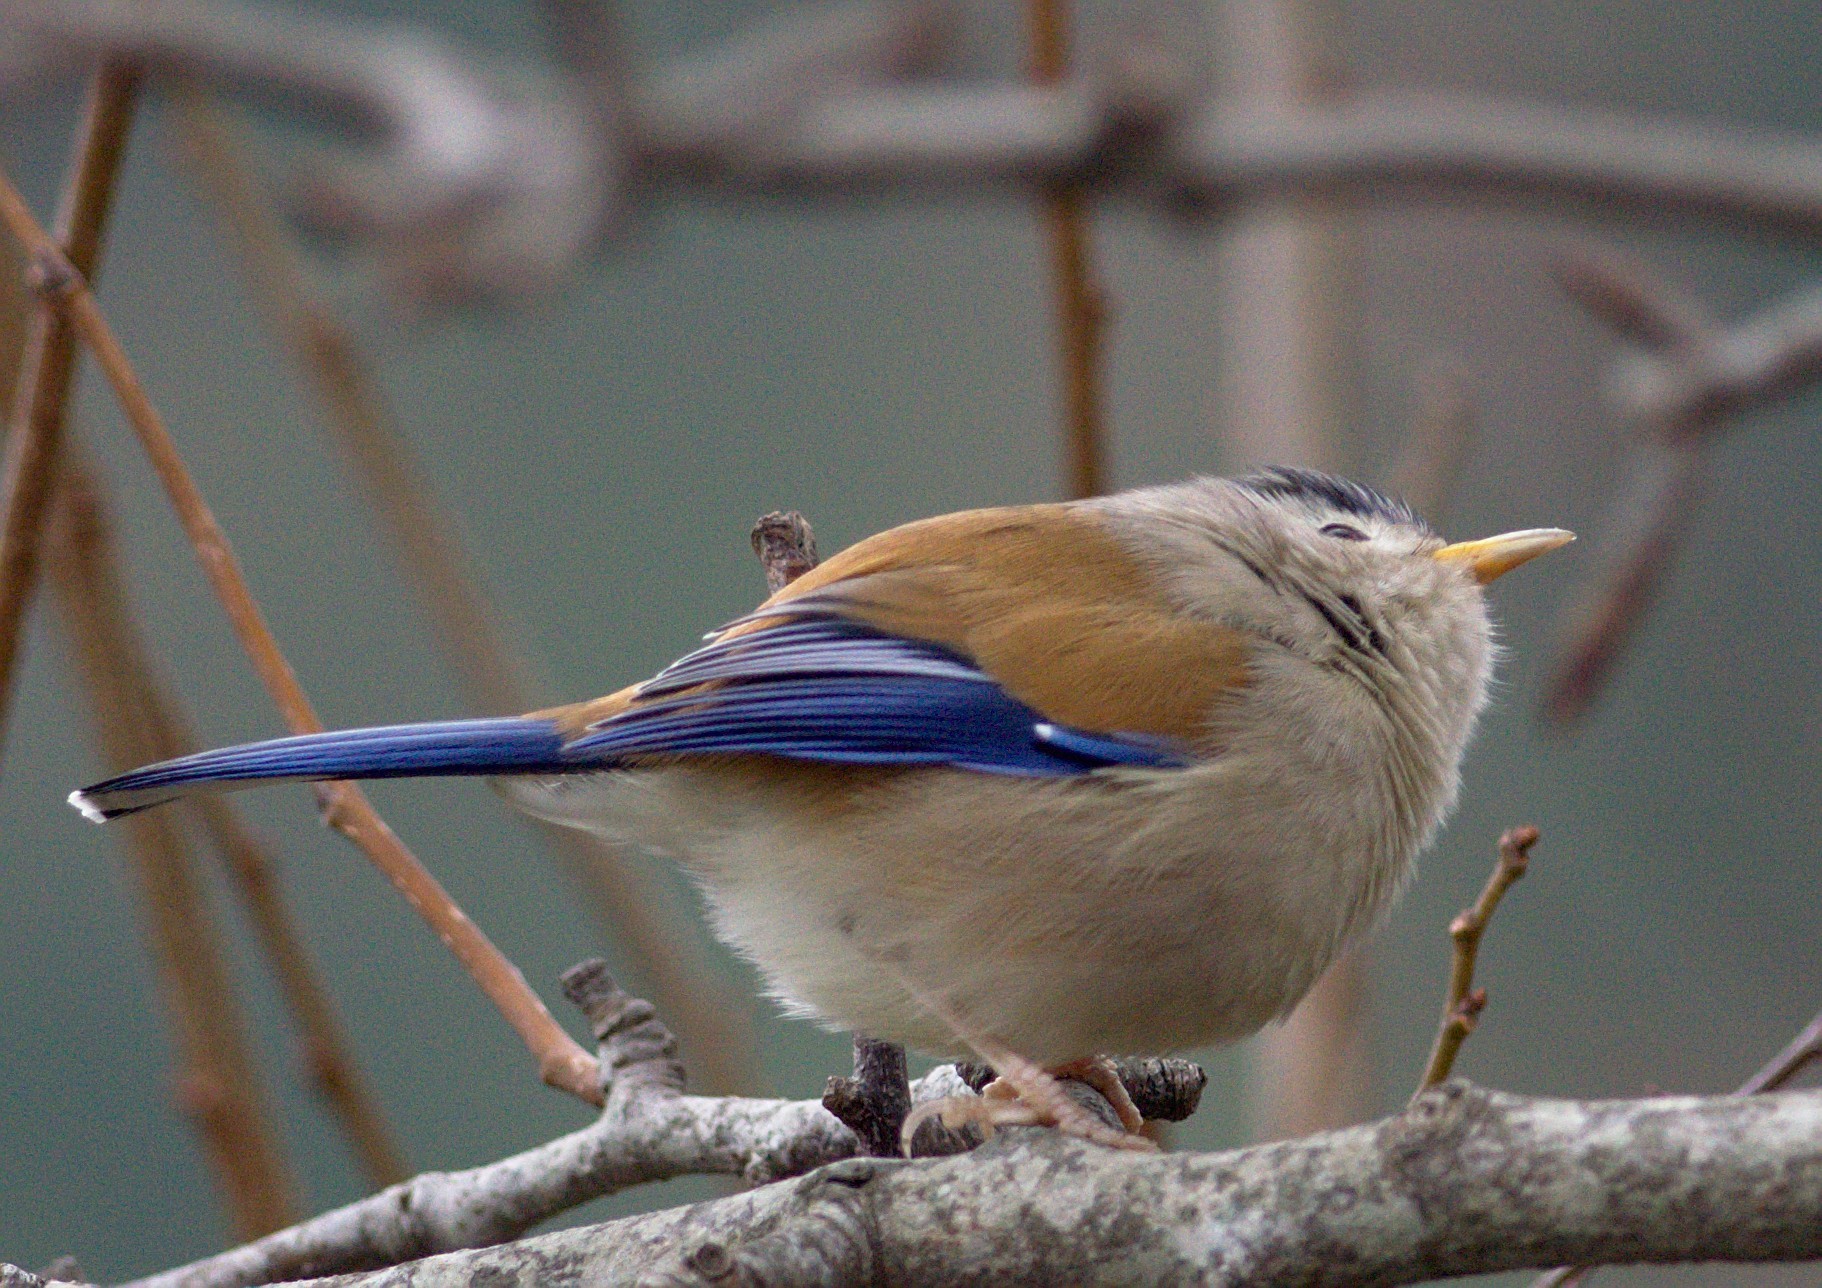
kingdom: Animalia
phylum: Chordata
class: Aves
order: Passeriformes
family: Leiothrichidae
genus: Minla
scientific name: Minla cyanouroptera
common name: Blue-winged minla
